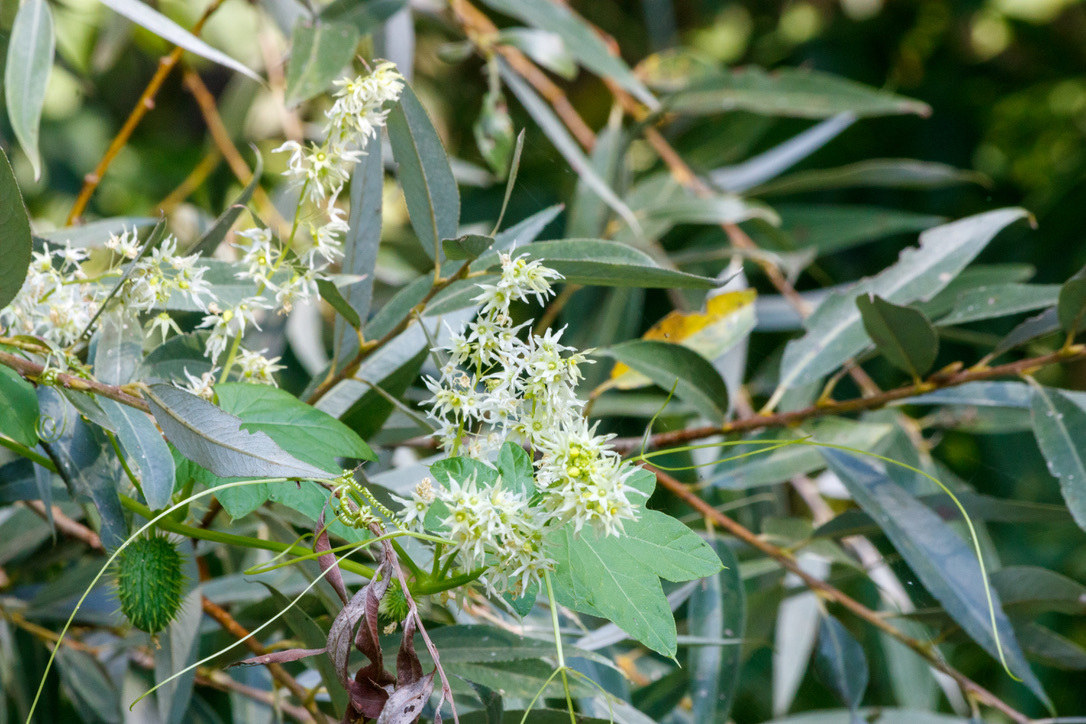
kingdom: Plantae
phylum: Tracheophyta
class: Magnoliopsida
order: Cucurbitales
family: Cucurbitaceae
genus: Echinocystis
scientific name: Echinocystis lobata
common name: Wild cucumber
